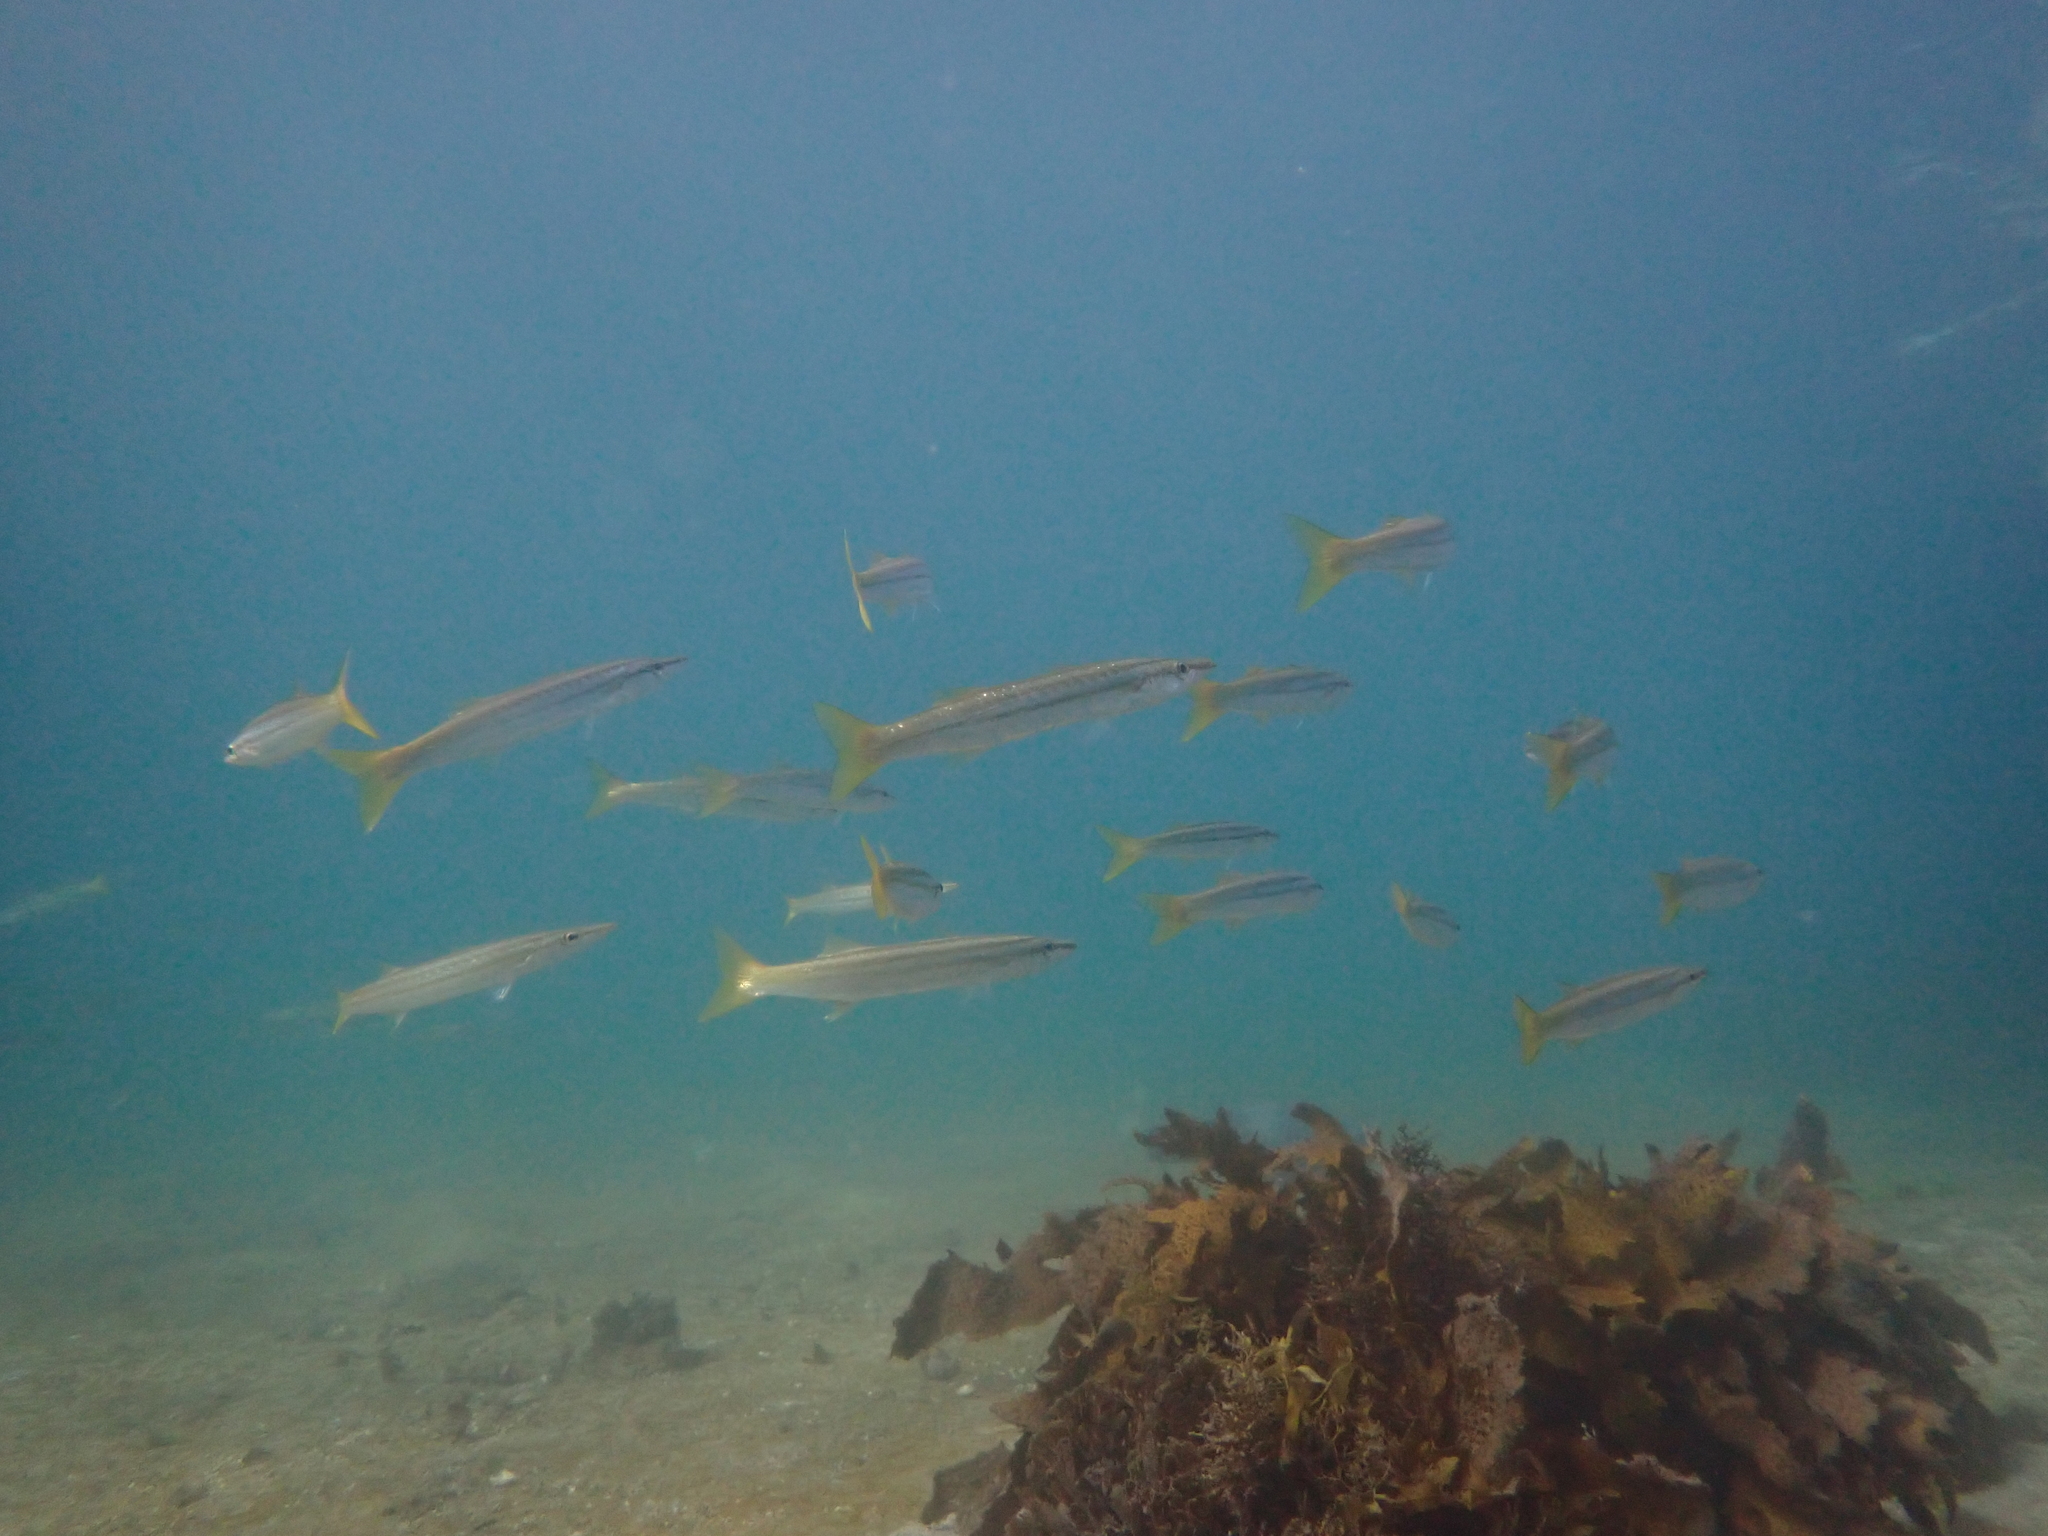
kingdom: Animalia
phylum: Chordata
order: Perciformes
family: Dinolestidae
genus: Dinolestes
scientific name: Dinolestes lewini
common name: Jack pike
